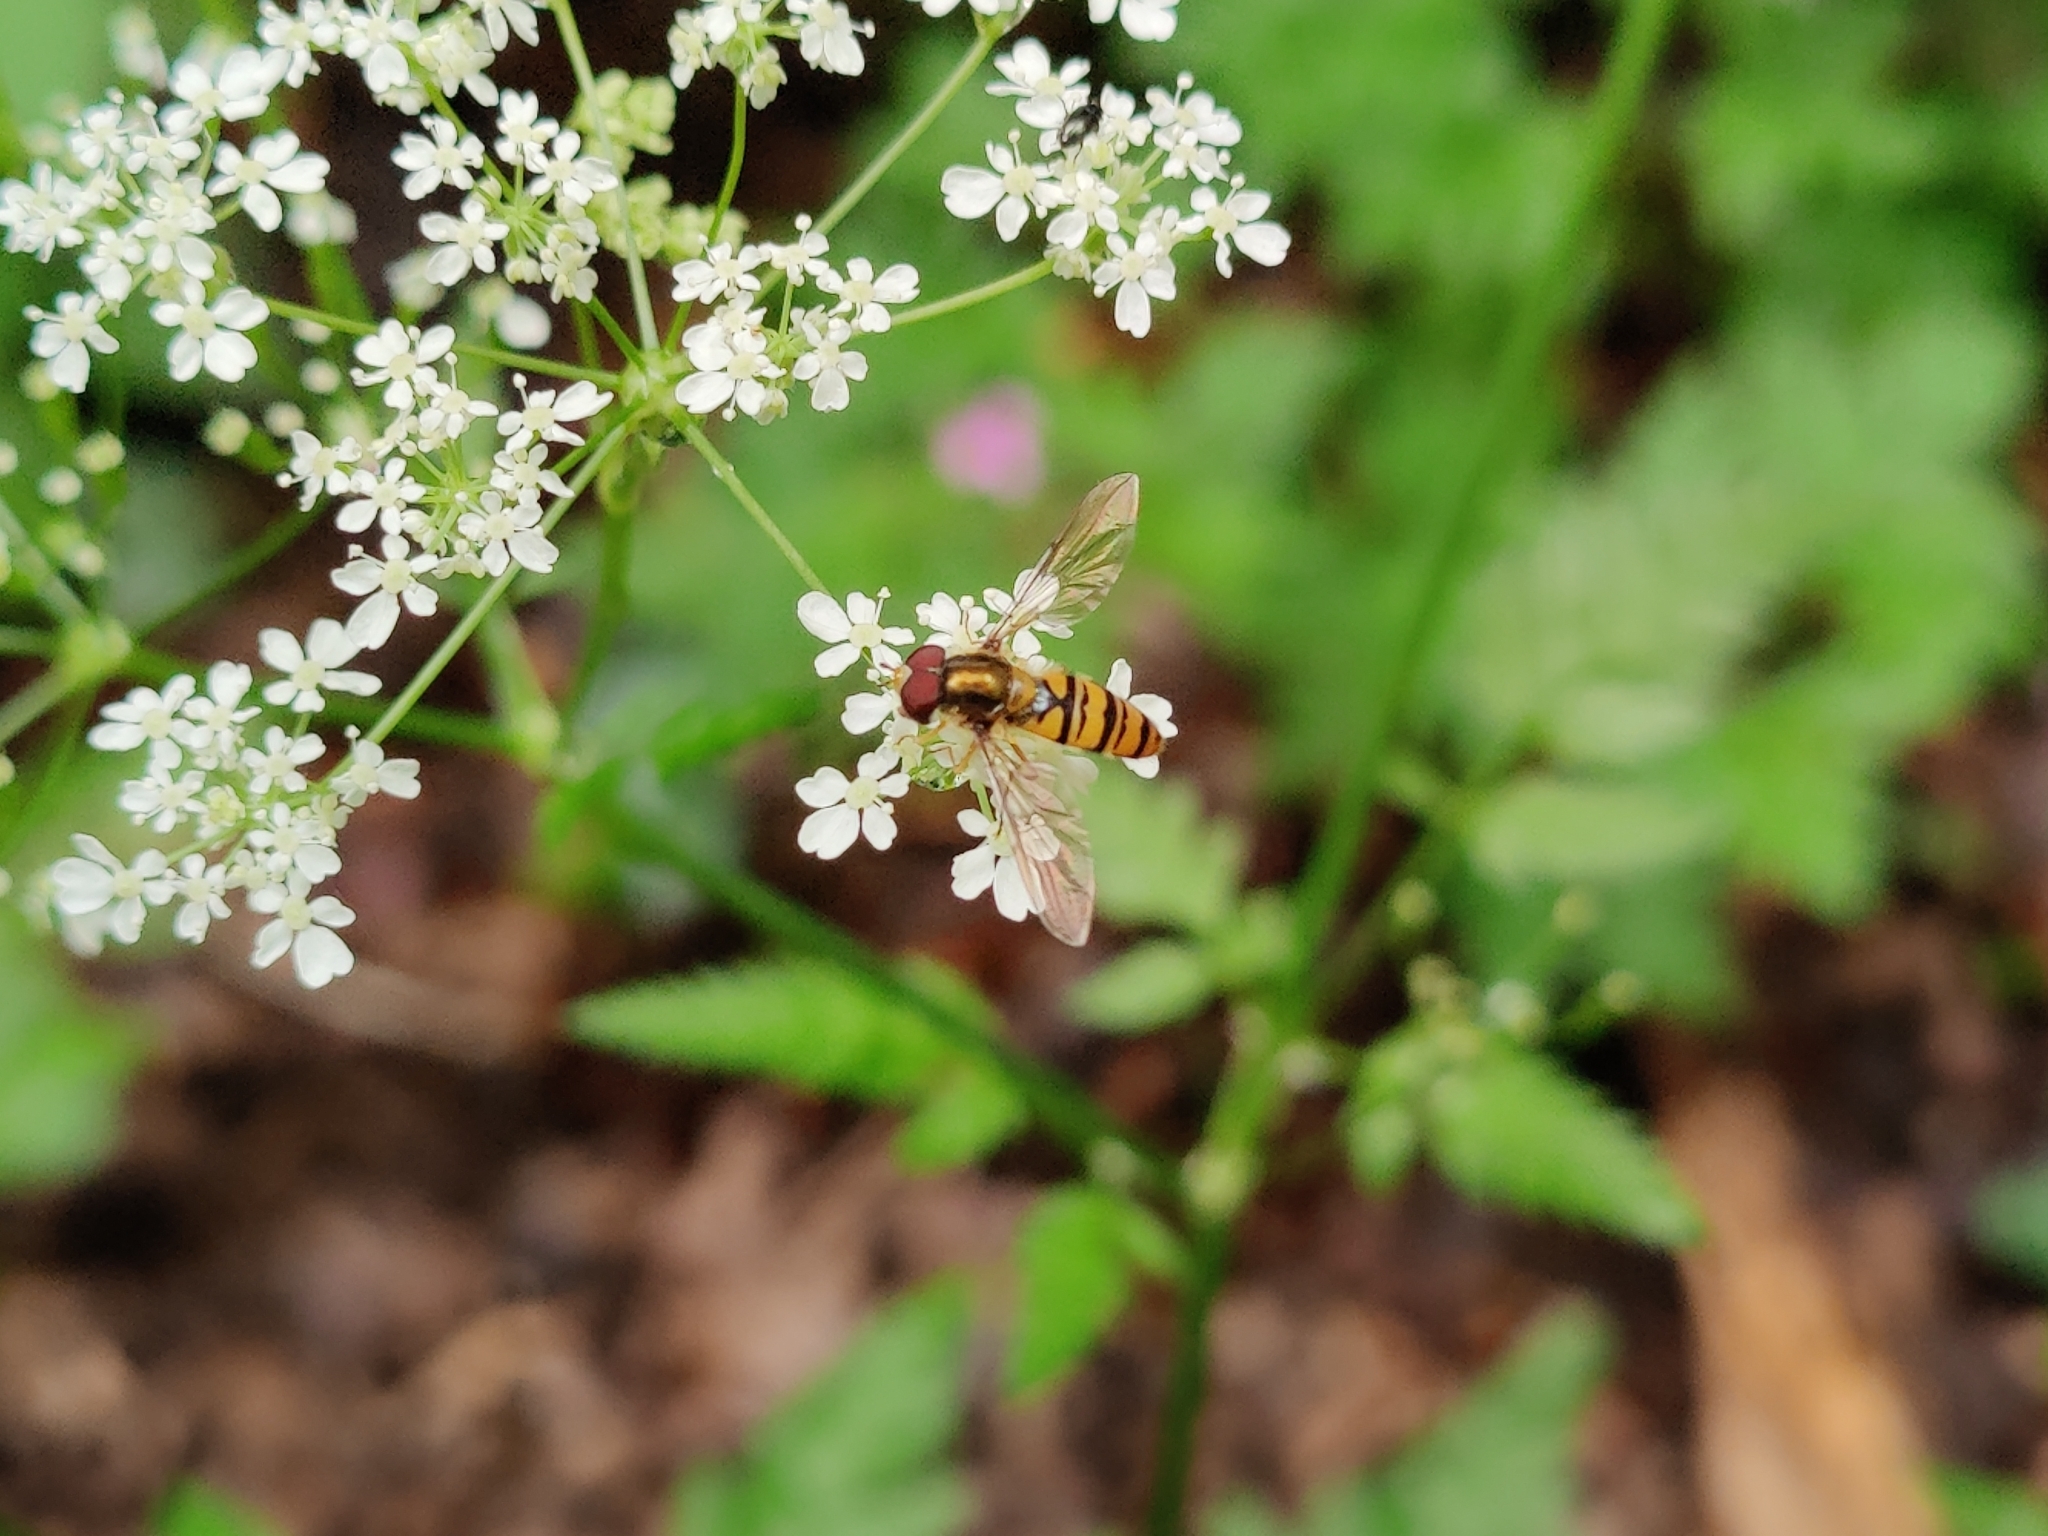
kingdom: Animalia
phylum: Arthropoda
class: Insecta
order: Diptera
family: Syrphidae
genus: Episyrphus
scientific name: Episyrphus balteatus
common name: Marmalade hoverfly
